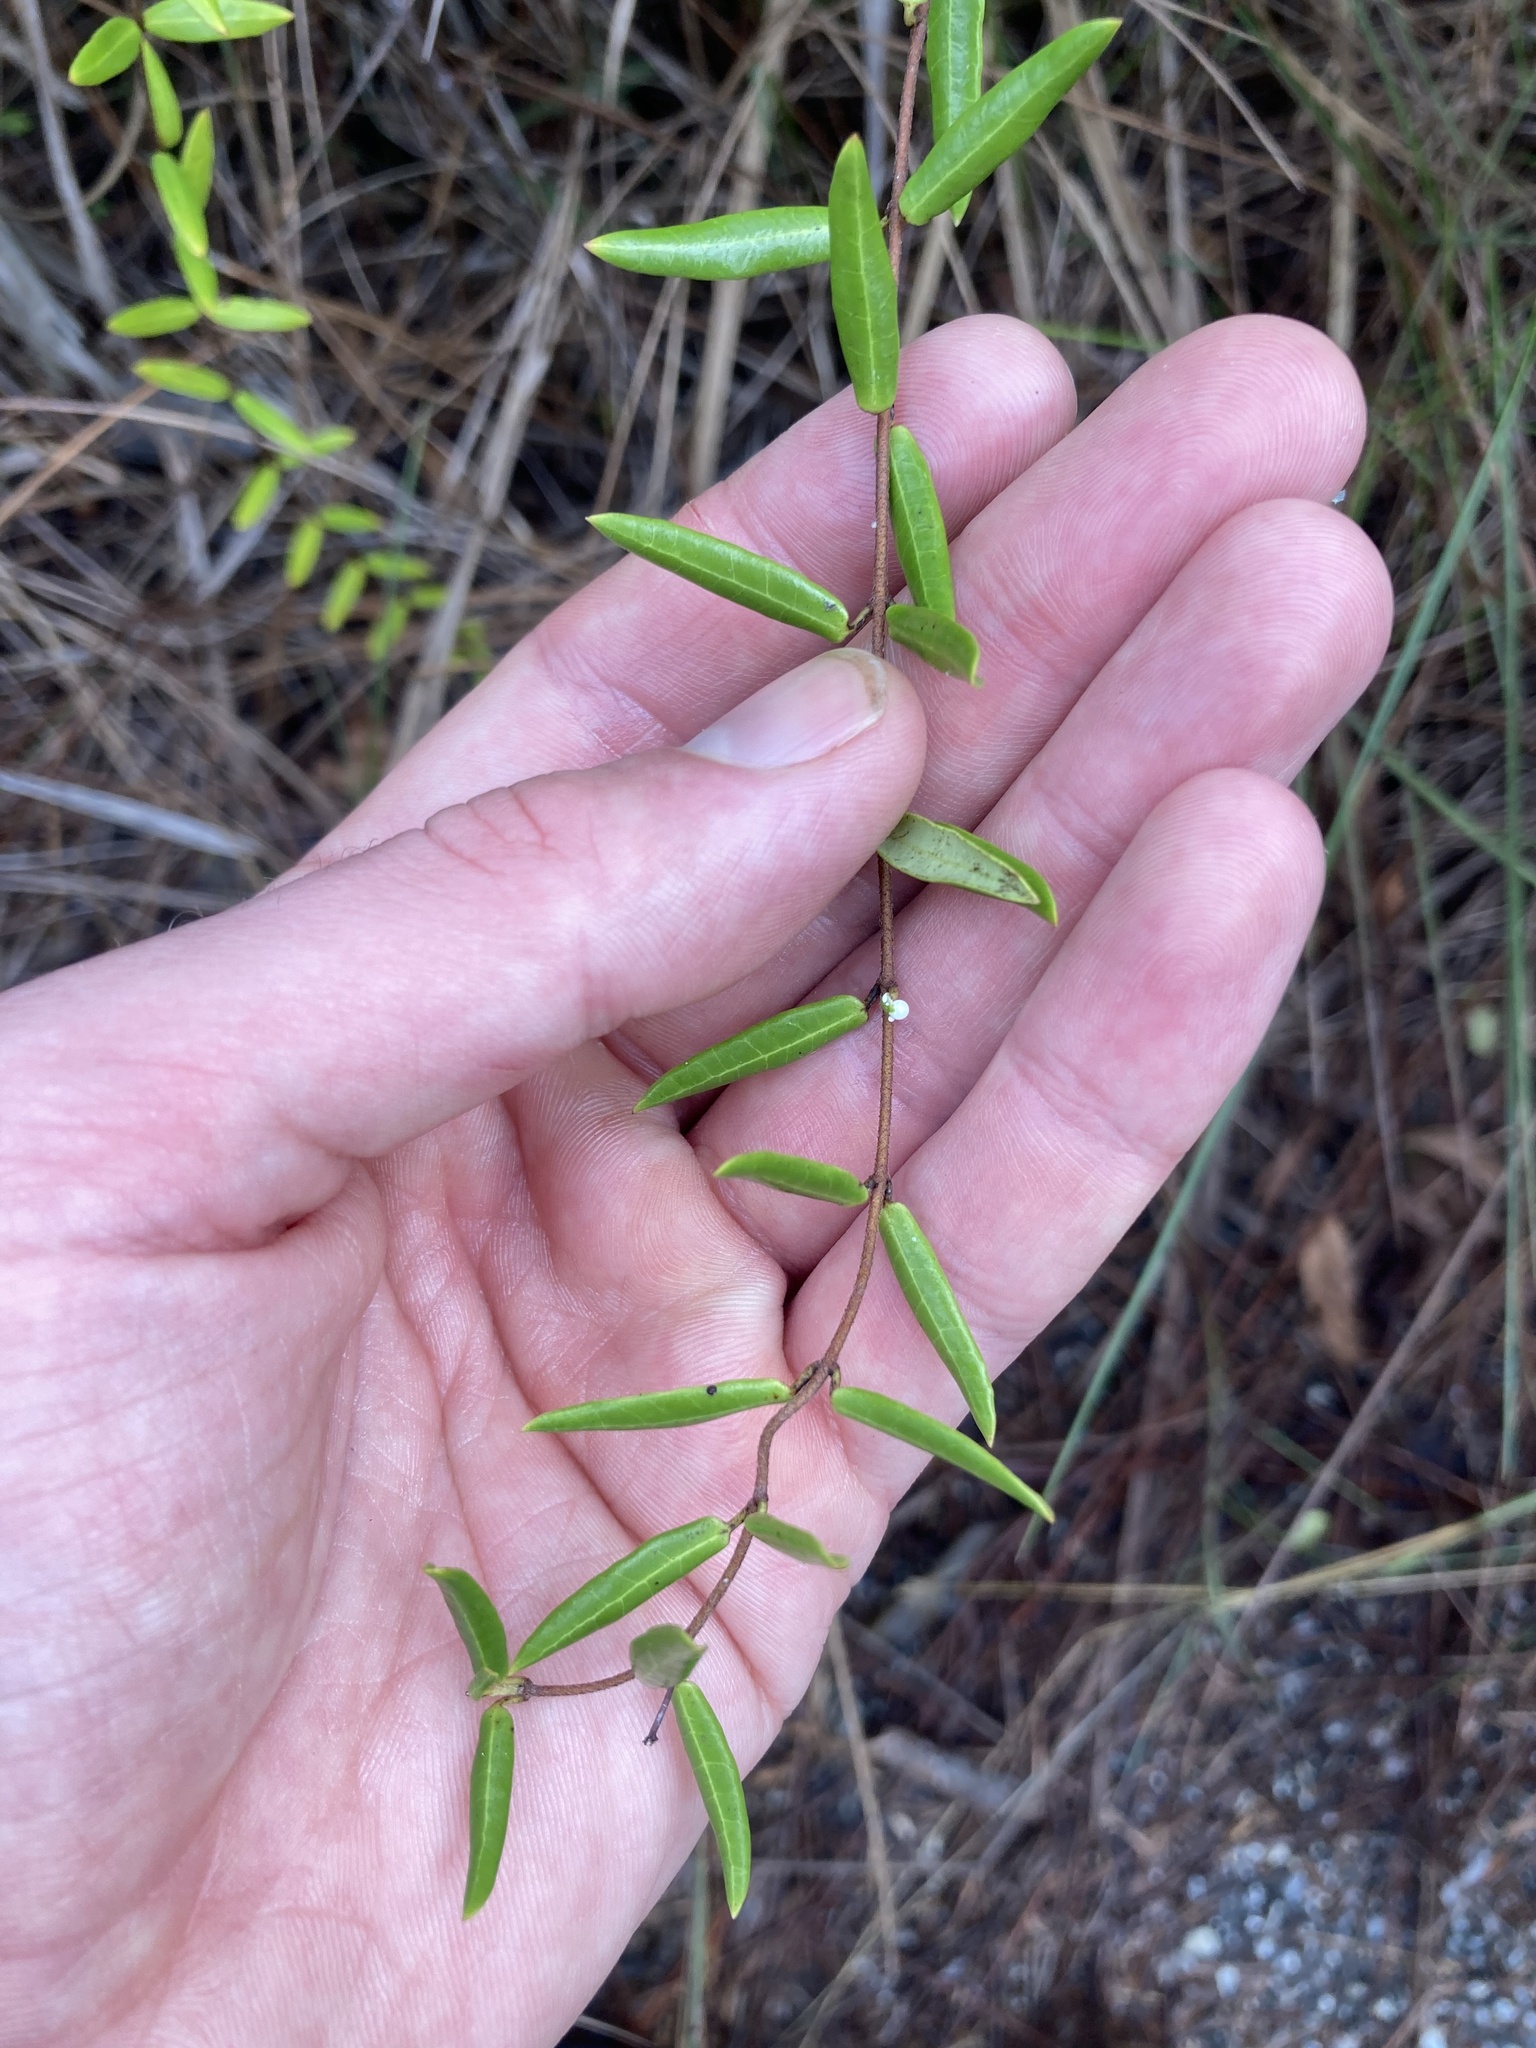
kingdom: Plantae
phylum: Tracheophyta
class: Magnoliopsida
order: Gentianales
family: Apocynaceae
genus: Angadenia
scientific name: Angadenia berteroi
